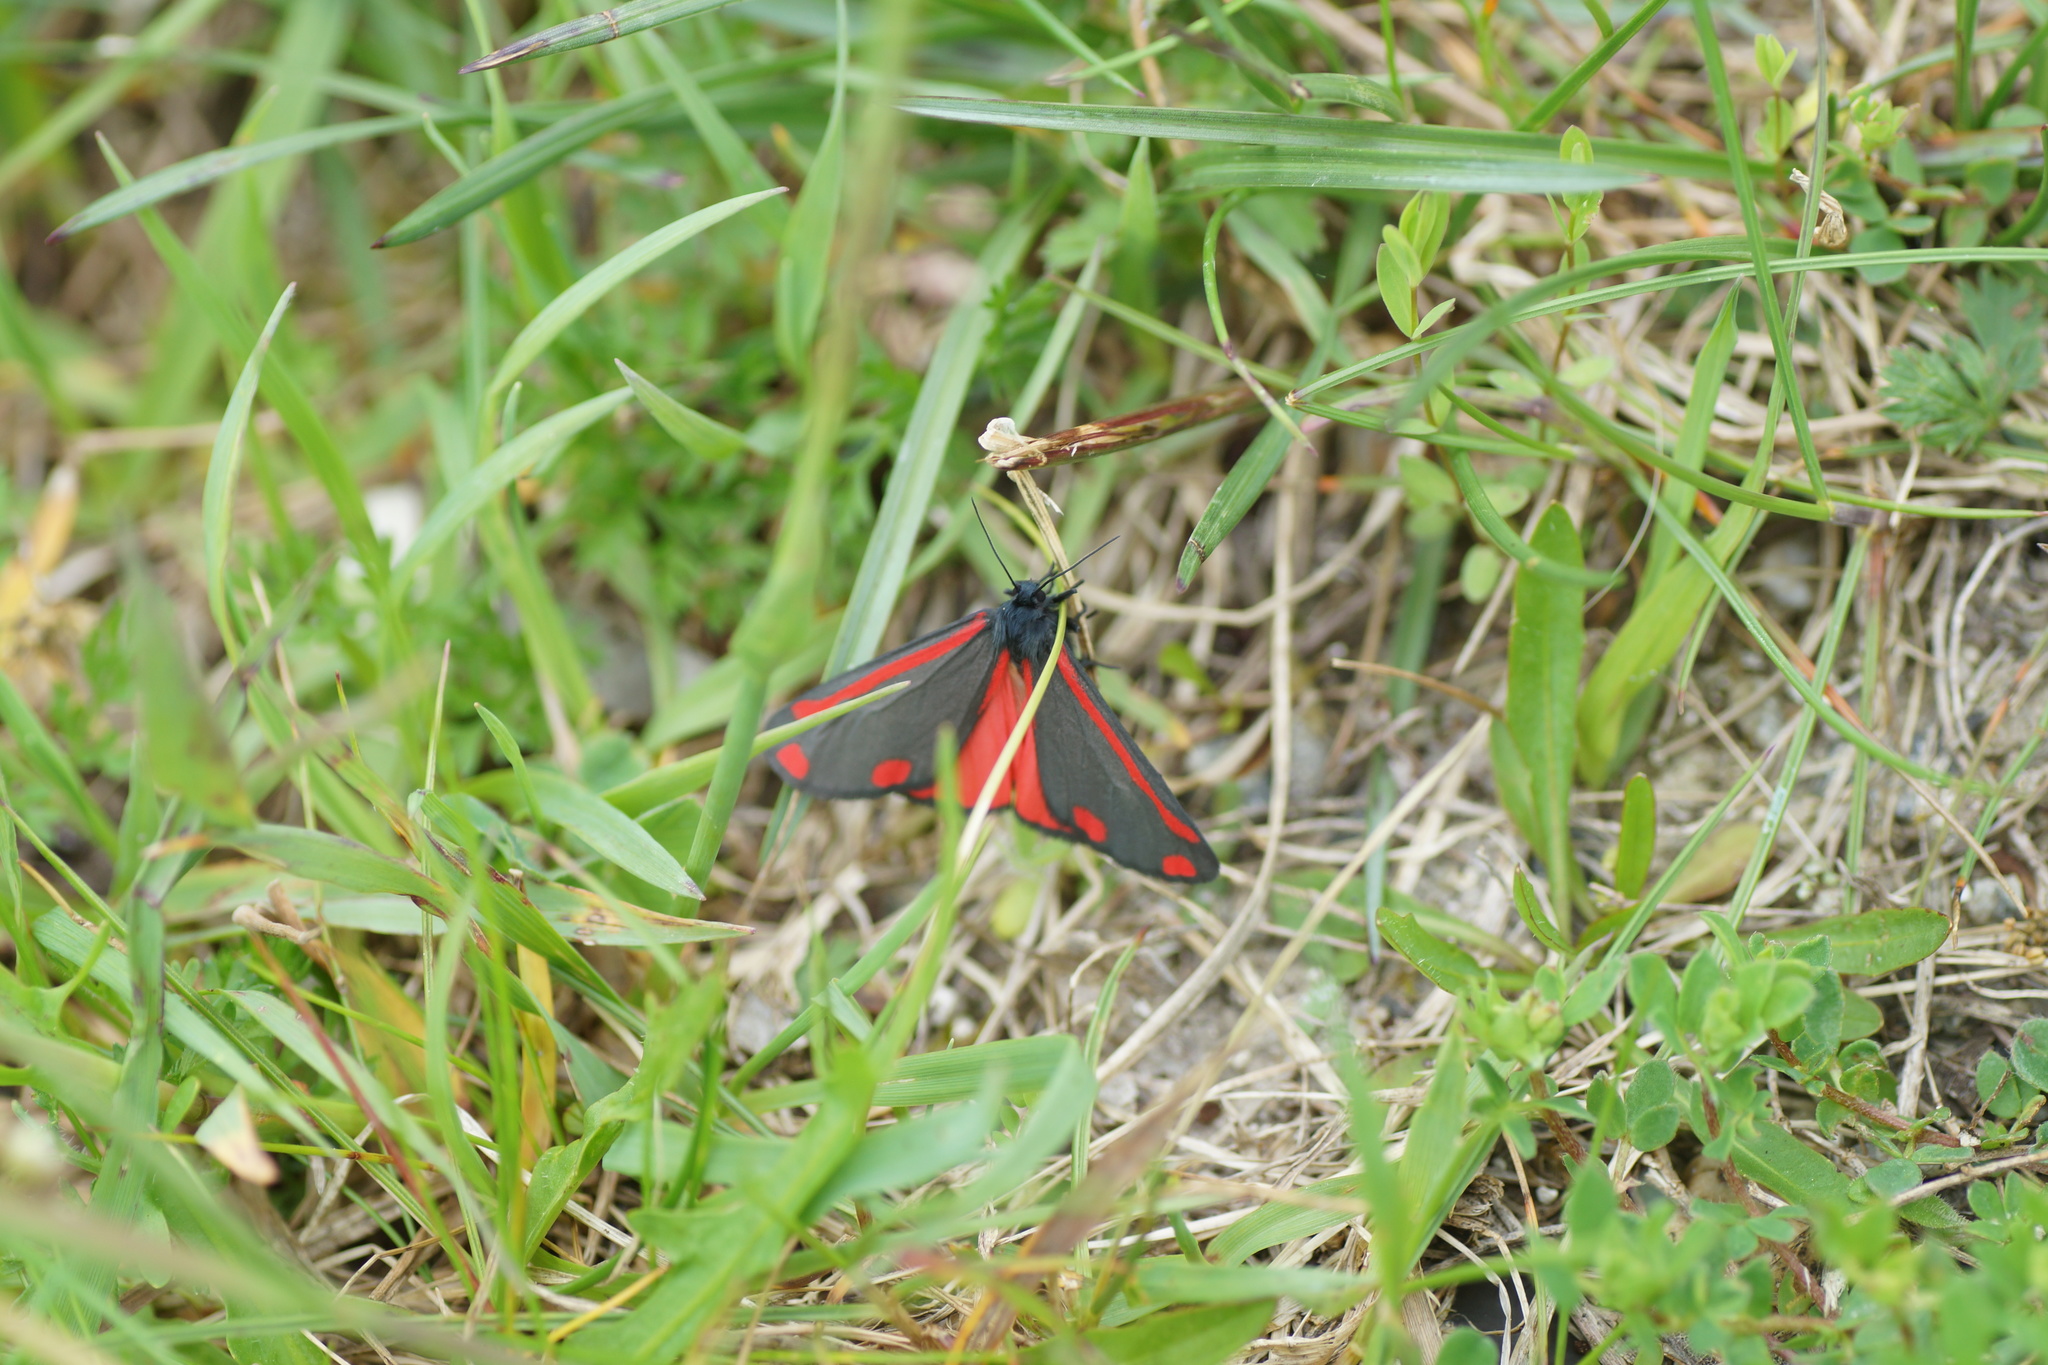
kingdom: Animalia
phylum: Arthropoda
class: Insecta
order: Lepidoptera
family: Erebidae
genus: Tyria
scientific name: Tyria jacobaeae
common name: Cinnabar
